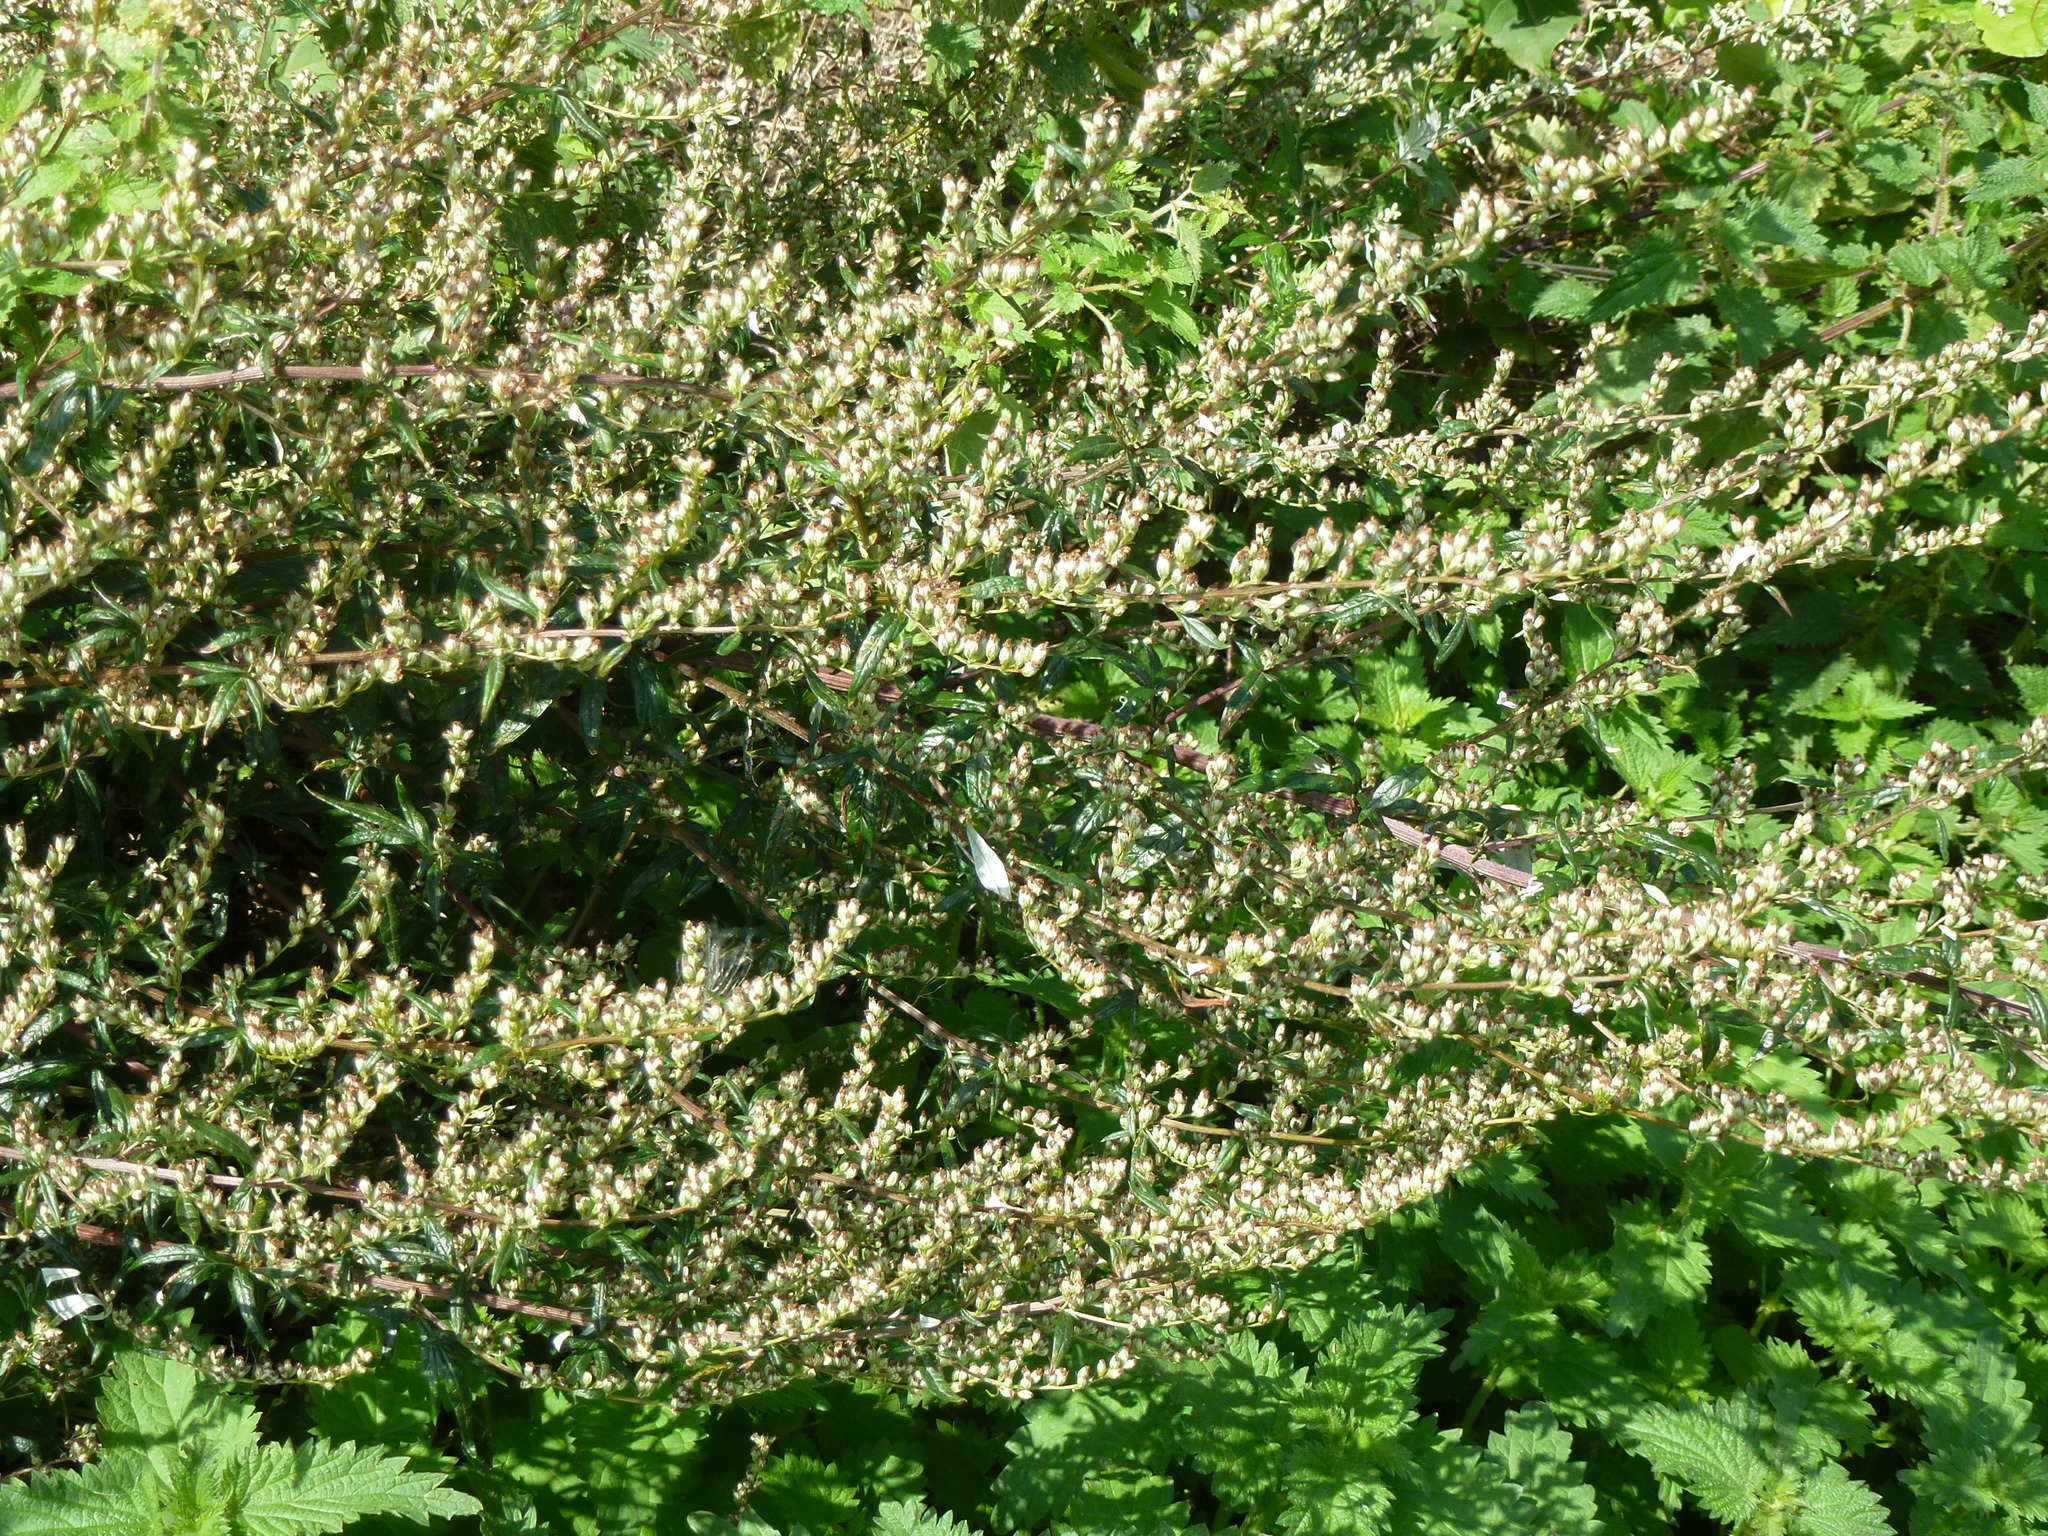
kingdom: Plantae
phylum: Tracheophyta
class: Magnoliopsida
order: Asterales
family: Asteraceae
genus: Artemisia
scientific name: Artemisia vulgaris
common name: Mugwort
